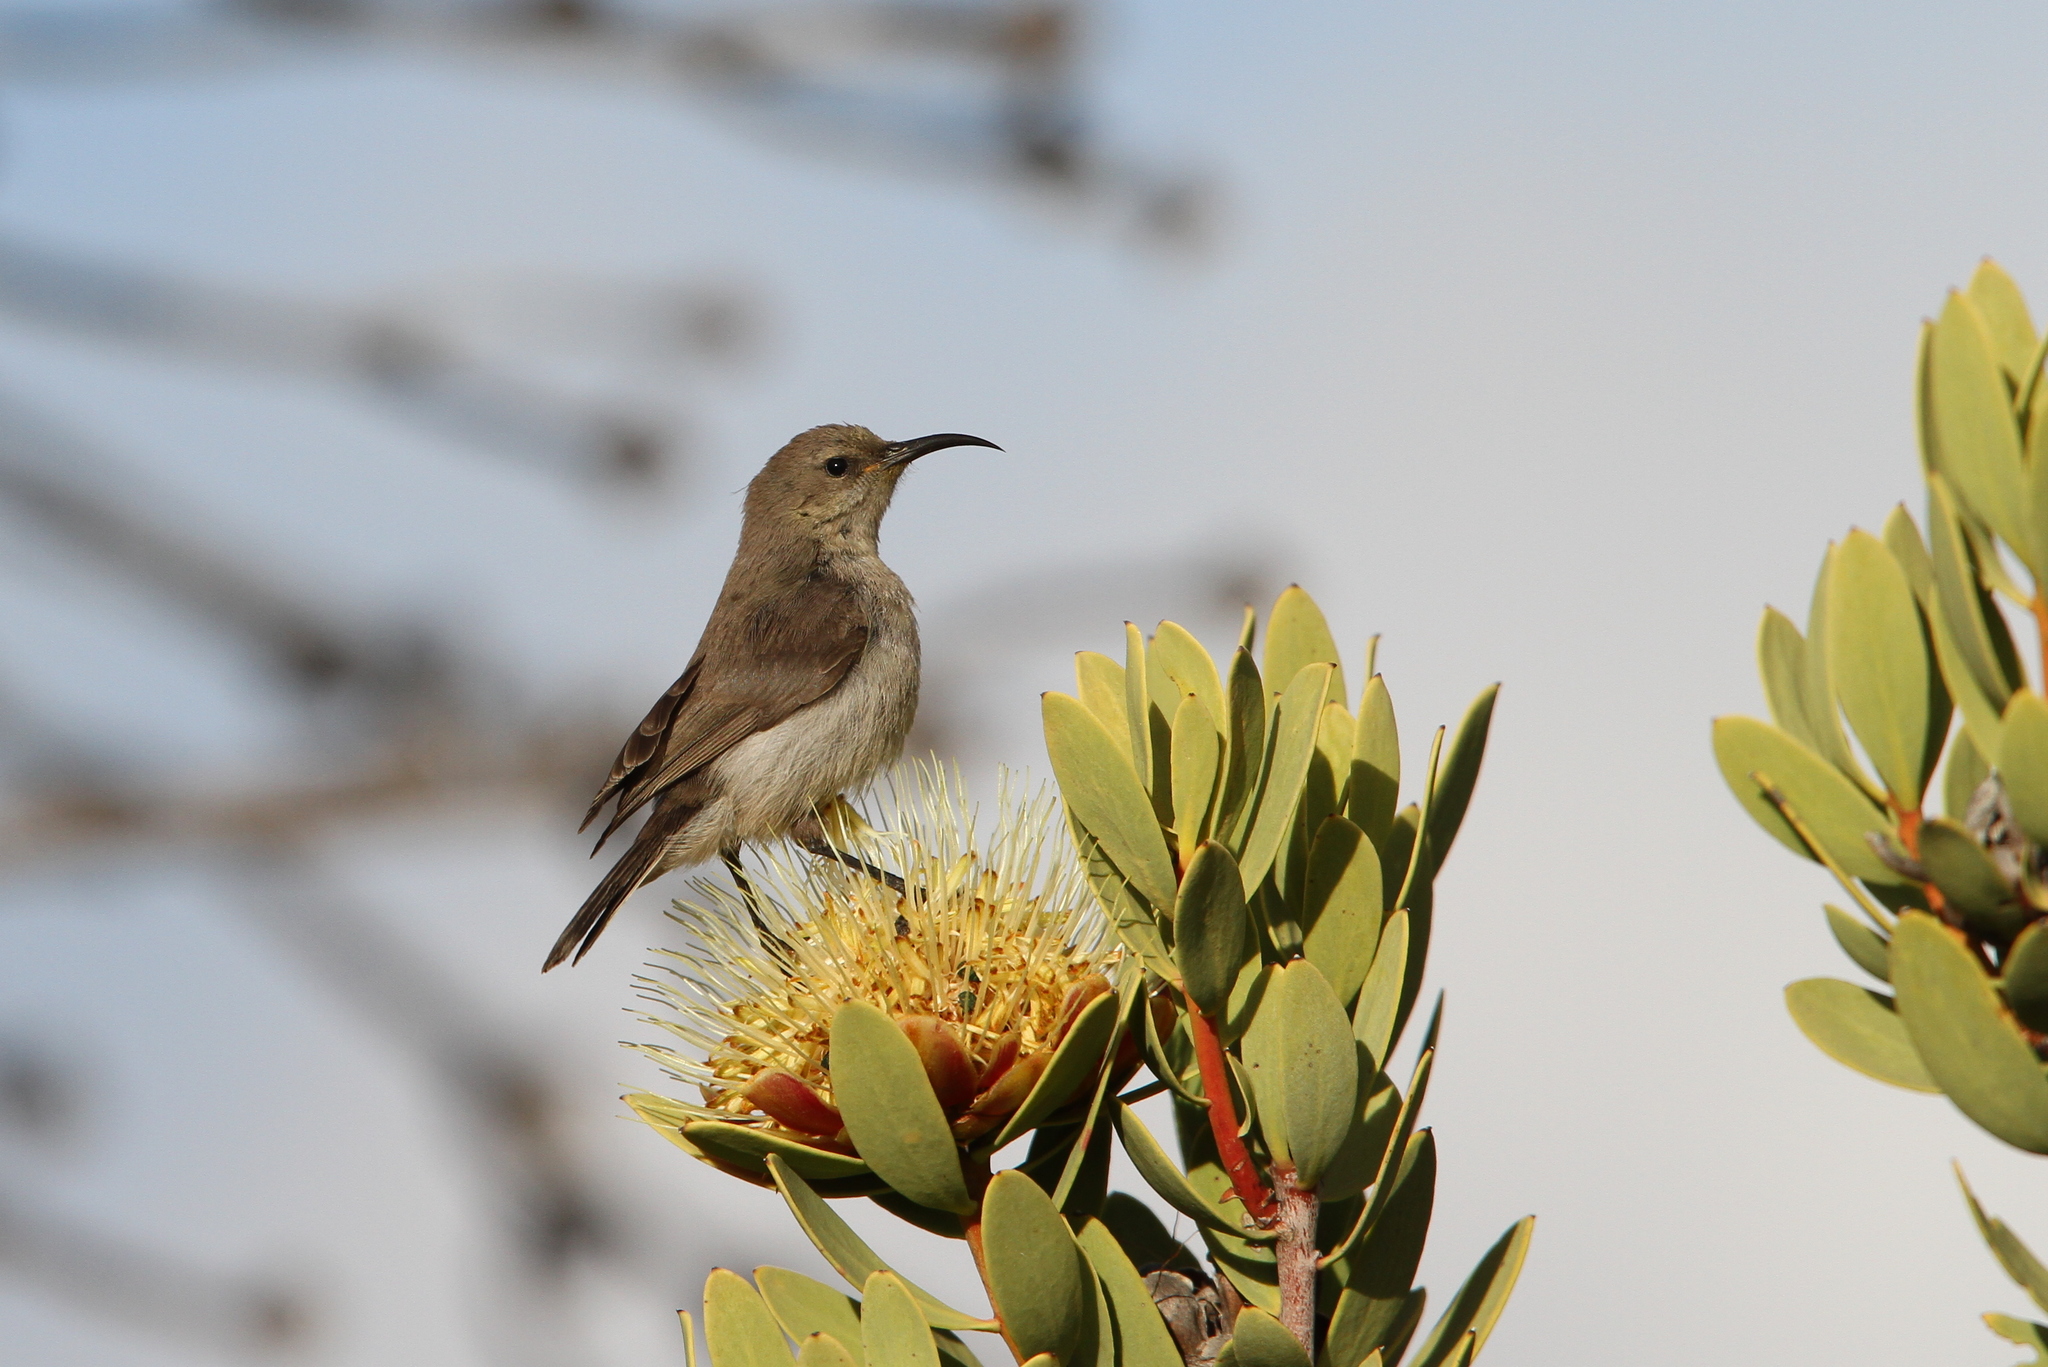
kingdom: Animalia
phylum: Chordata
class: Aves
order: Passeriformes
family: Nectariniidae
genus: Cinnyris
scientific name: Cinnyris chalybeus
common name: Southern double-collared sunbird
